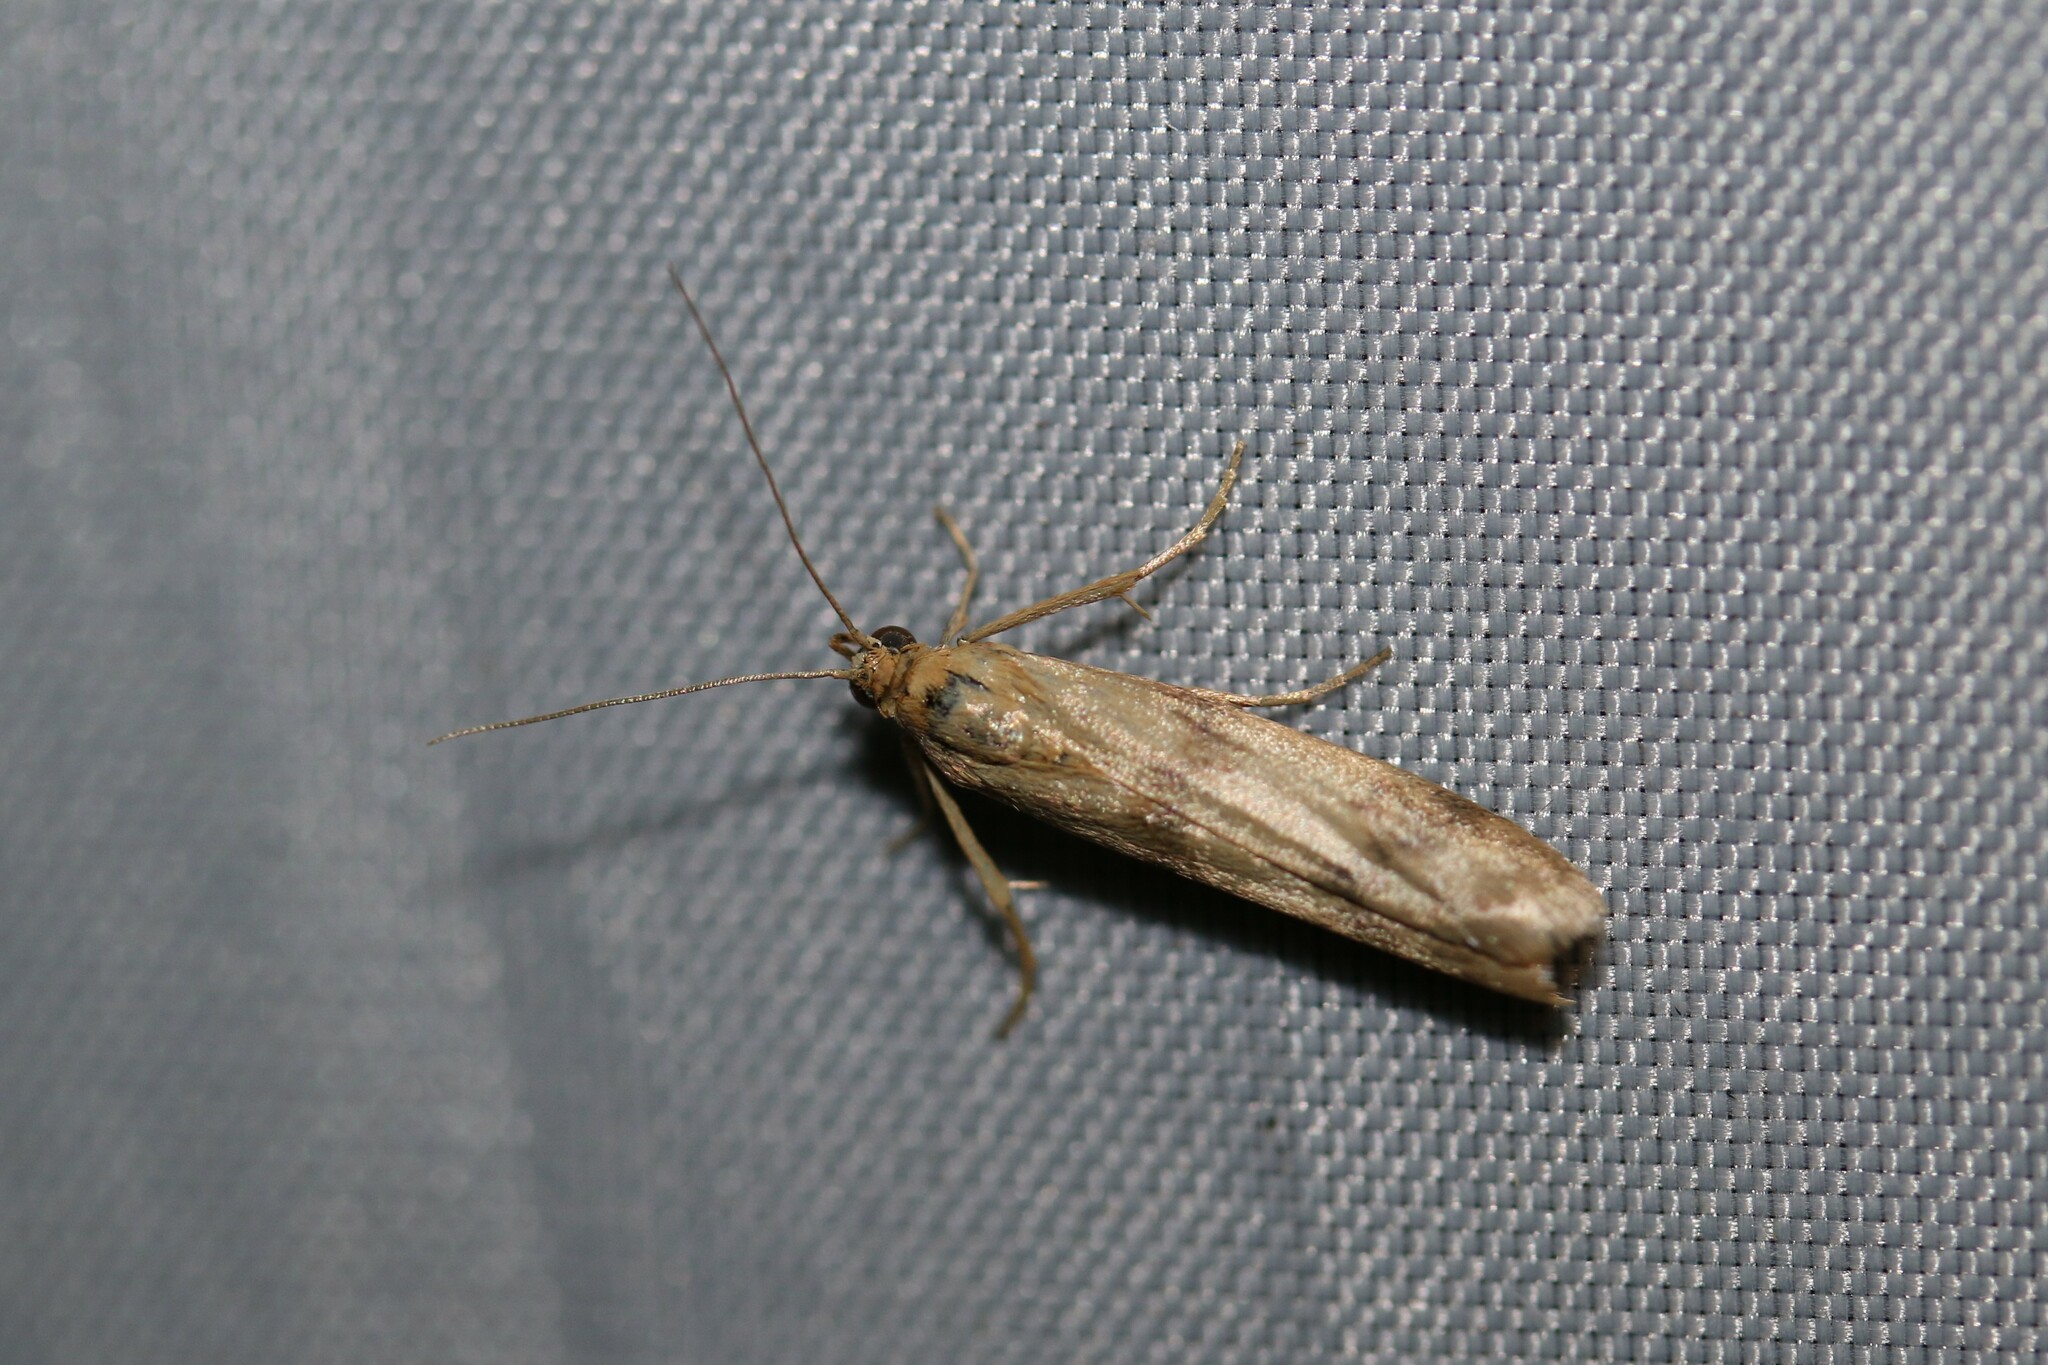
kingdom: Animalia
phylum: Arthropoda
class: Insecta
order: Lepidoptera
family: Pyralidae
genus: Homoeosoma
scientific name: Homoeosoma sinuella
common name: Twin-barred knot-horn
